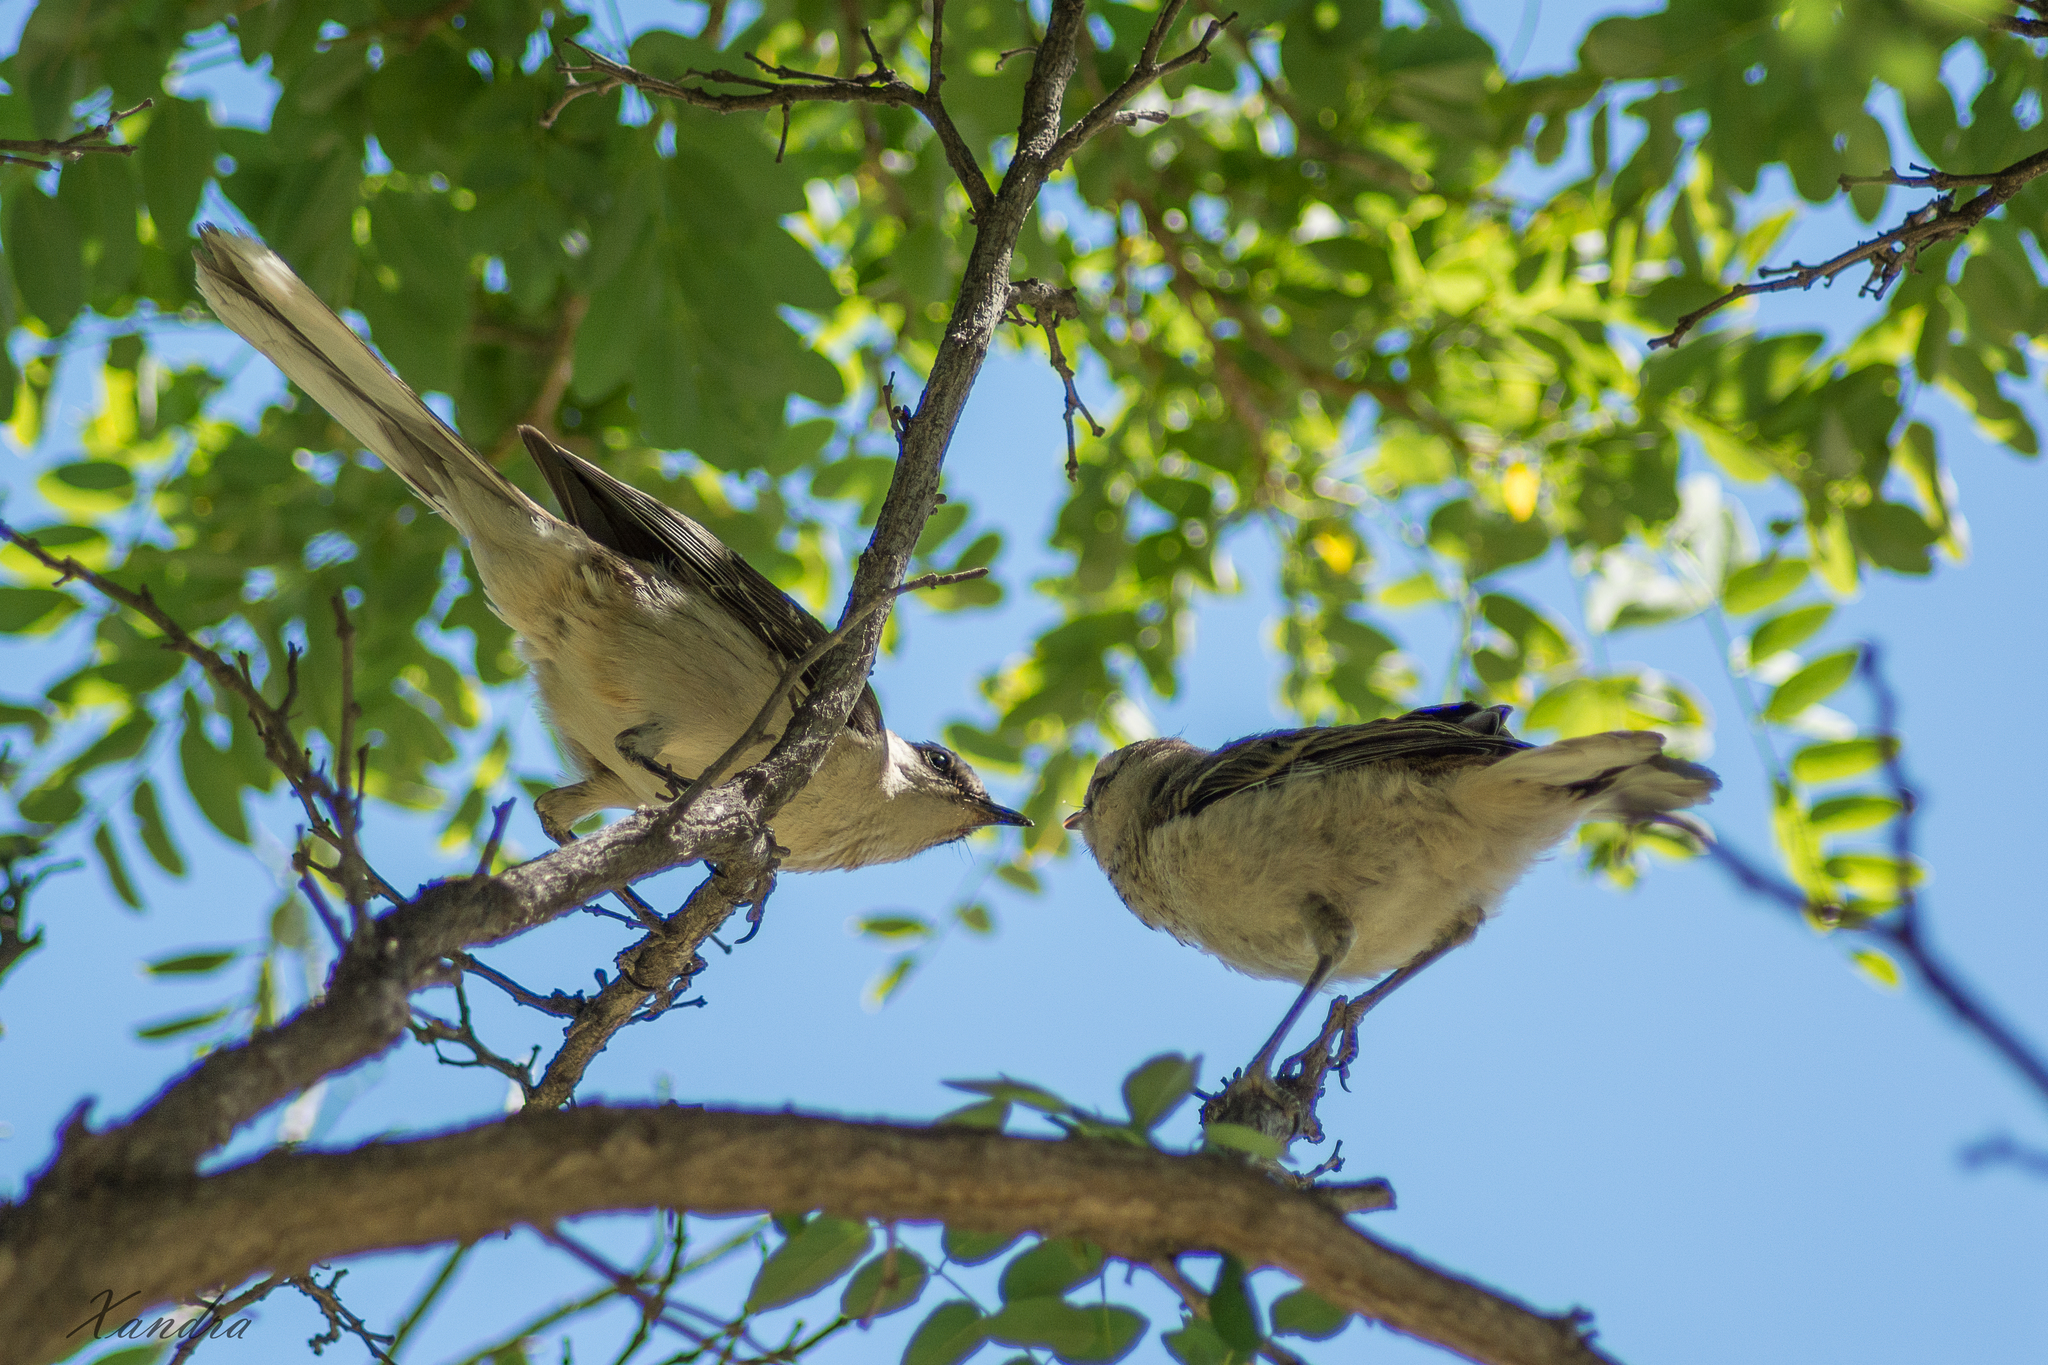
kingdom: Animalia
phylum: Chordata
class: Aves
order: Passeriformes
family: Mimidae
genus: Mimus
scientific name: Mimus saturninus
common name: Chalk-browed mockingbird
